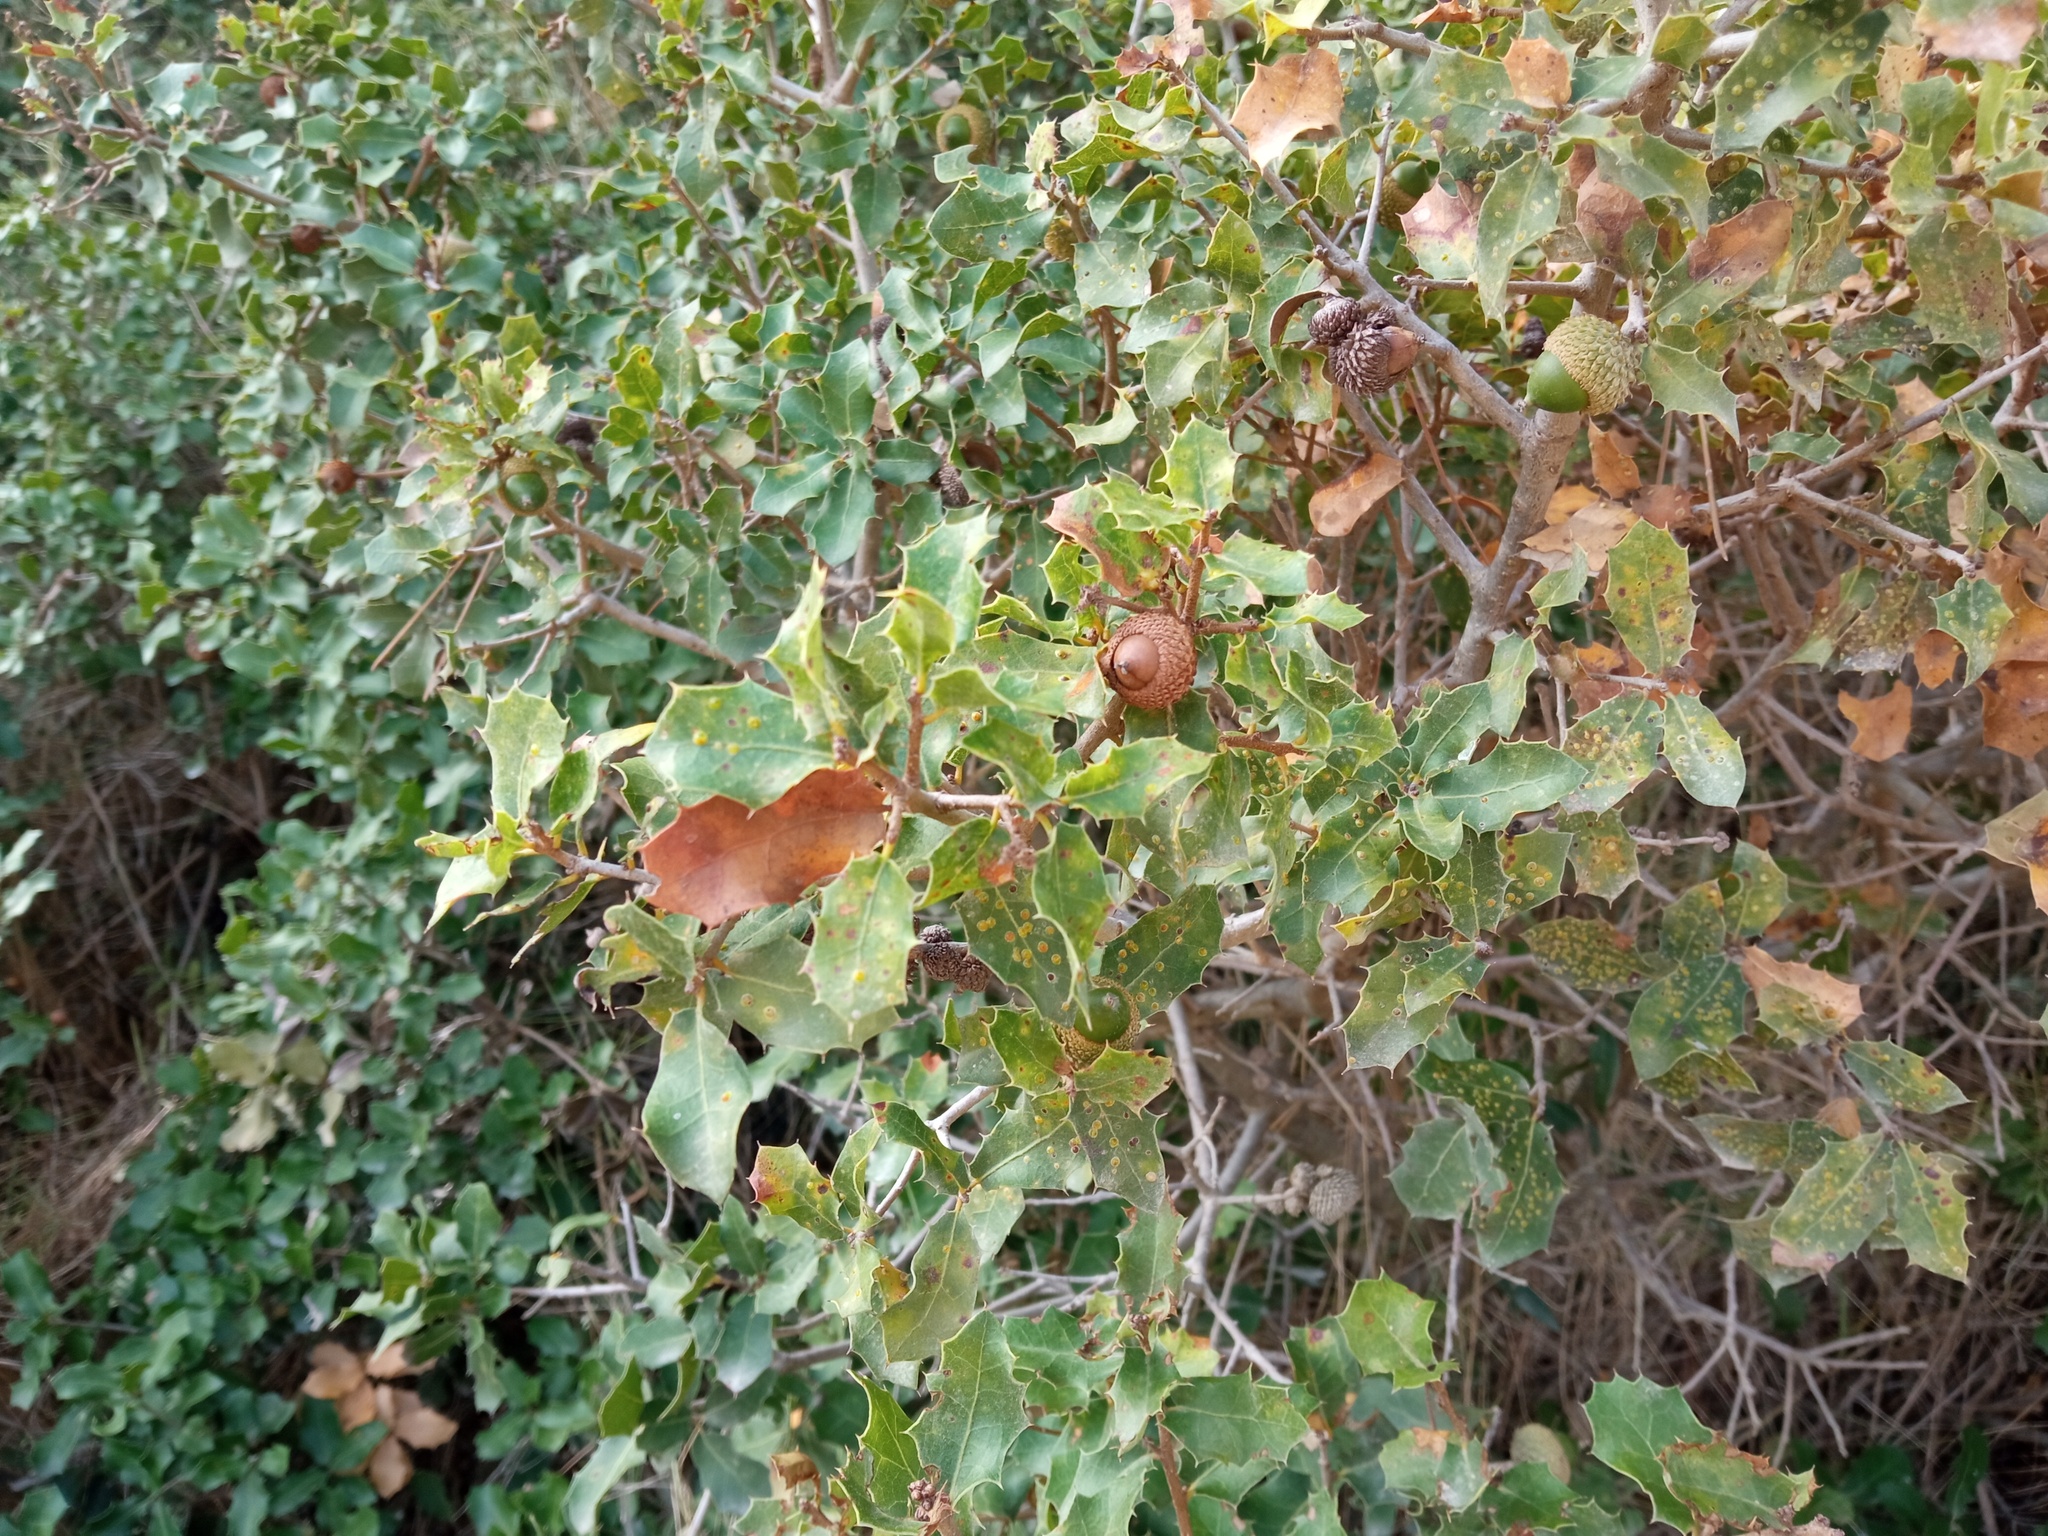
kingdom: Plantae
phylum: Tracheophyta
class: Magnoliopsida
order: Fagales
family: Fagaceae
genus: Quercus
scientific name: Quercus coccifera
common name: Kermes oak
